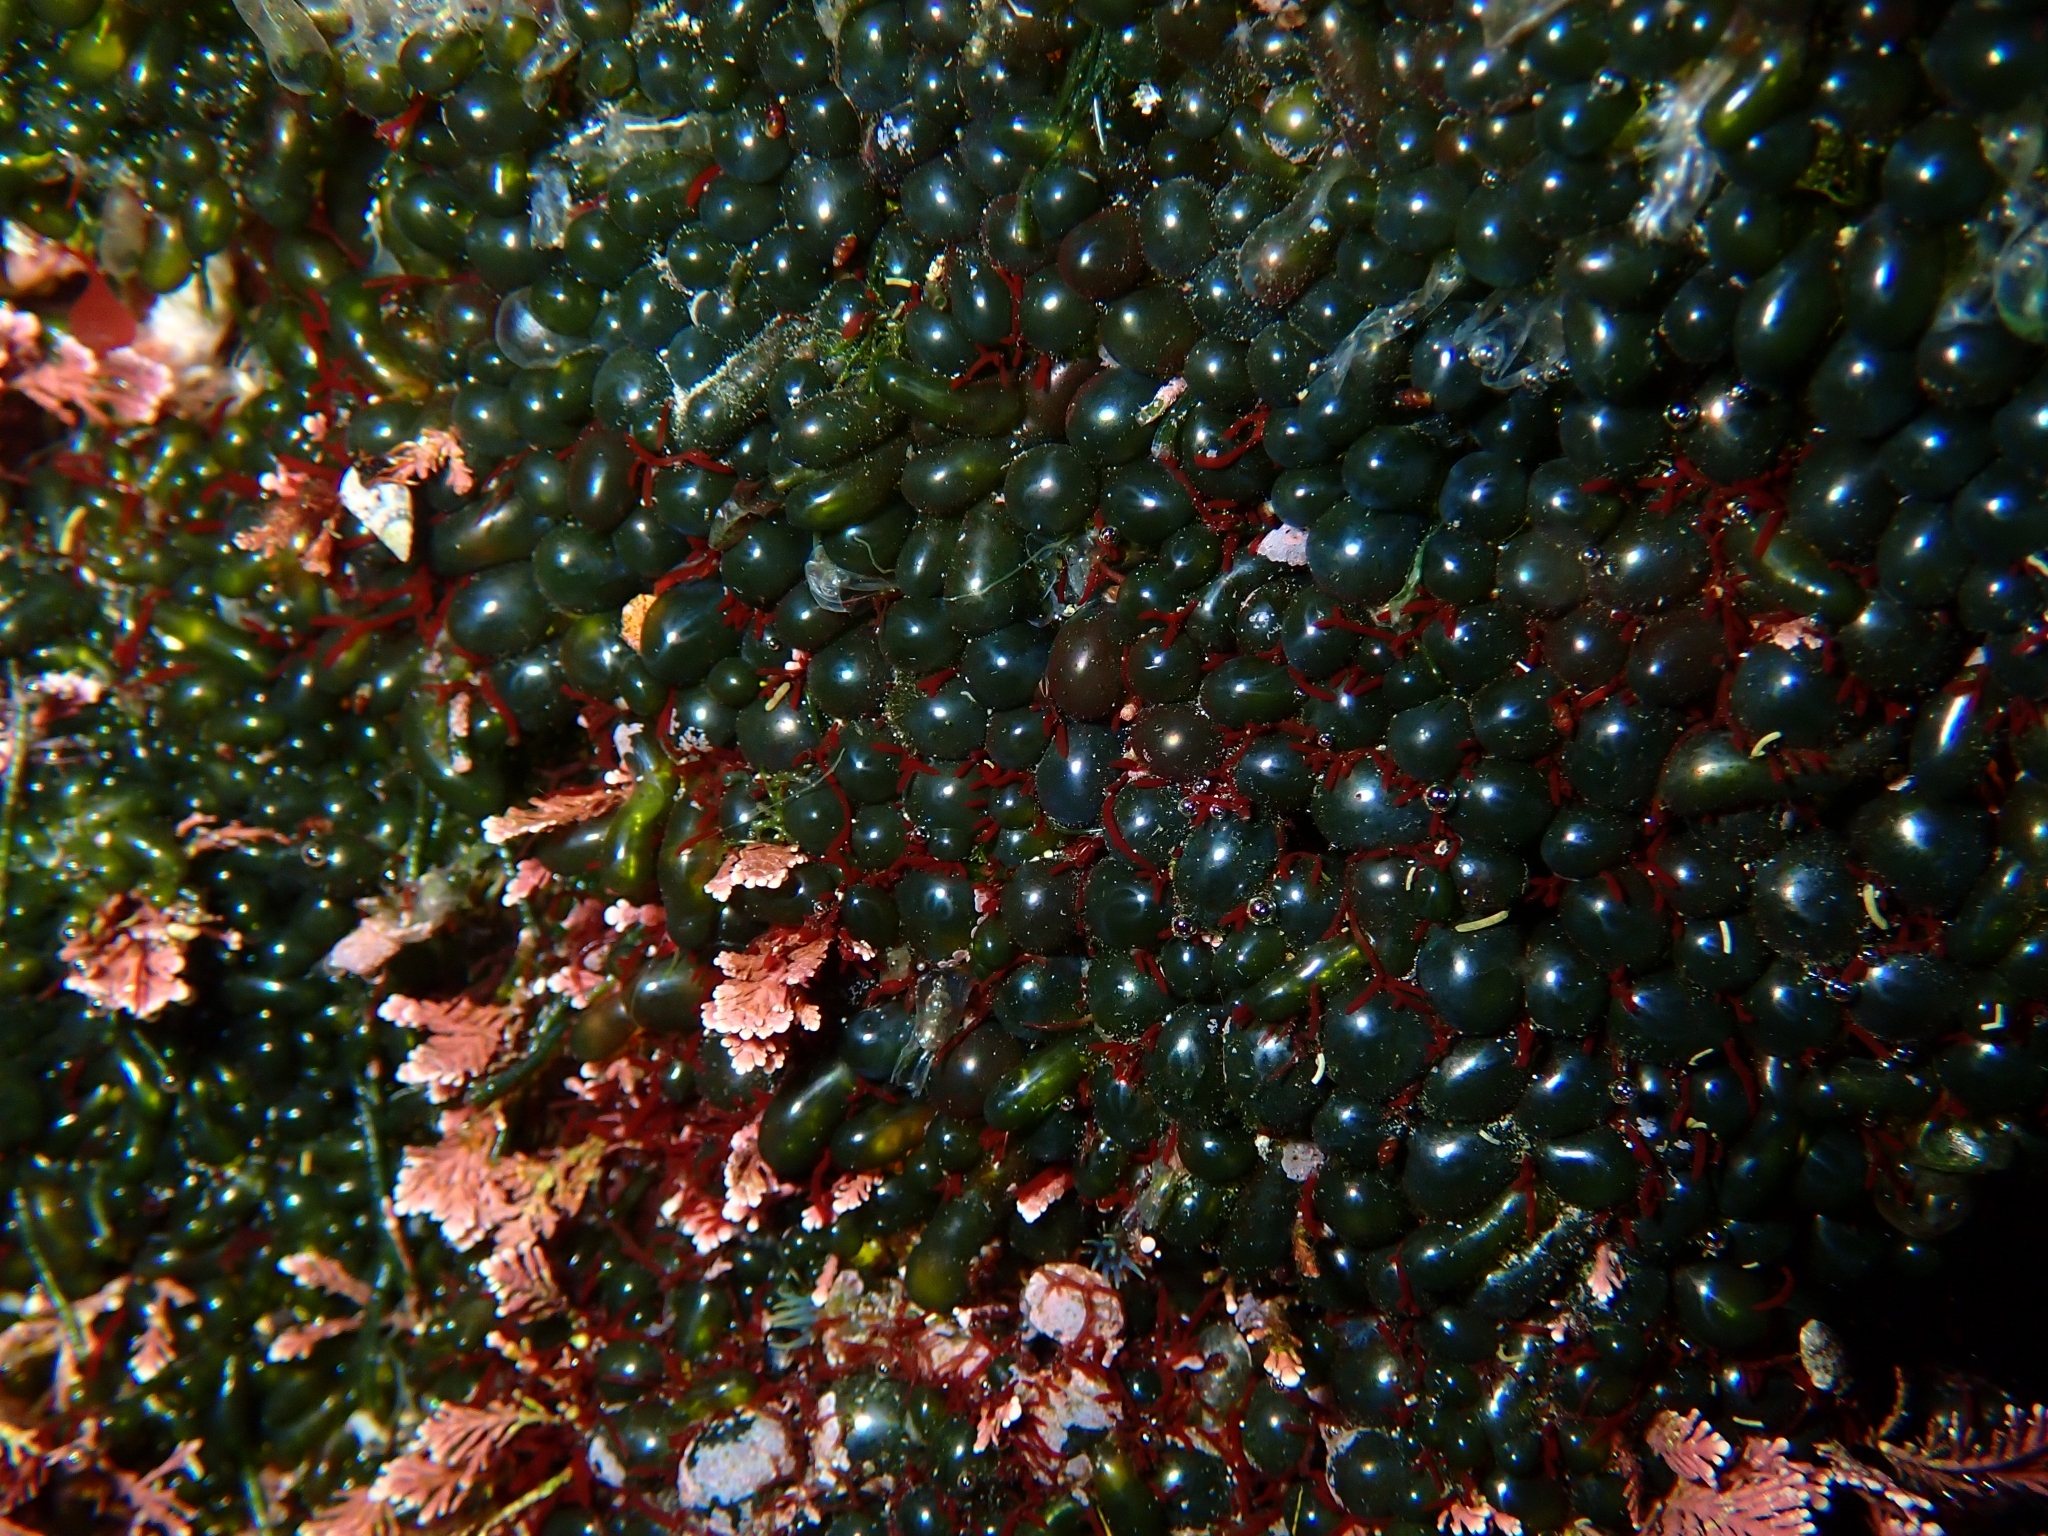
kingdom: Plantae
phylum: Chlorophyta
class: Ulvophyceae
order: Siphonocladales
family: Valoniaceae
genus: Valonia
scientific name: Valonia utricularis
